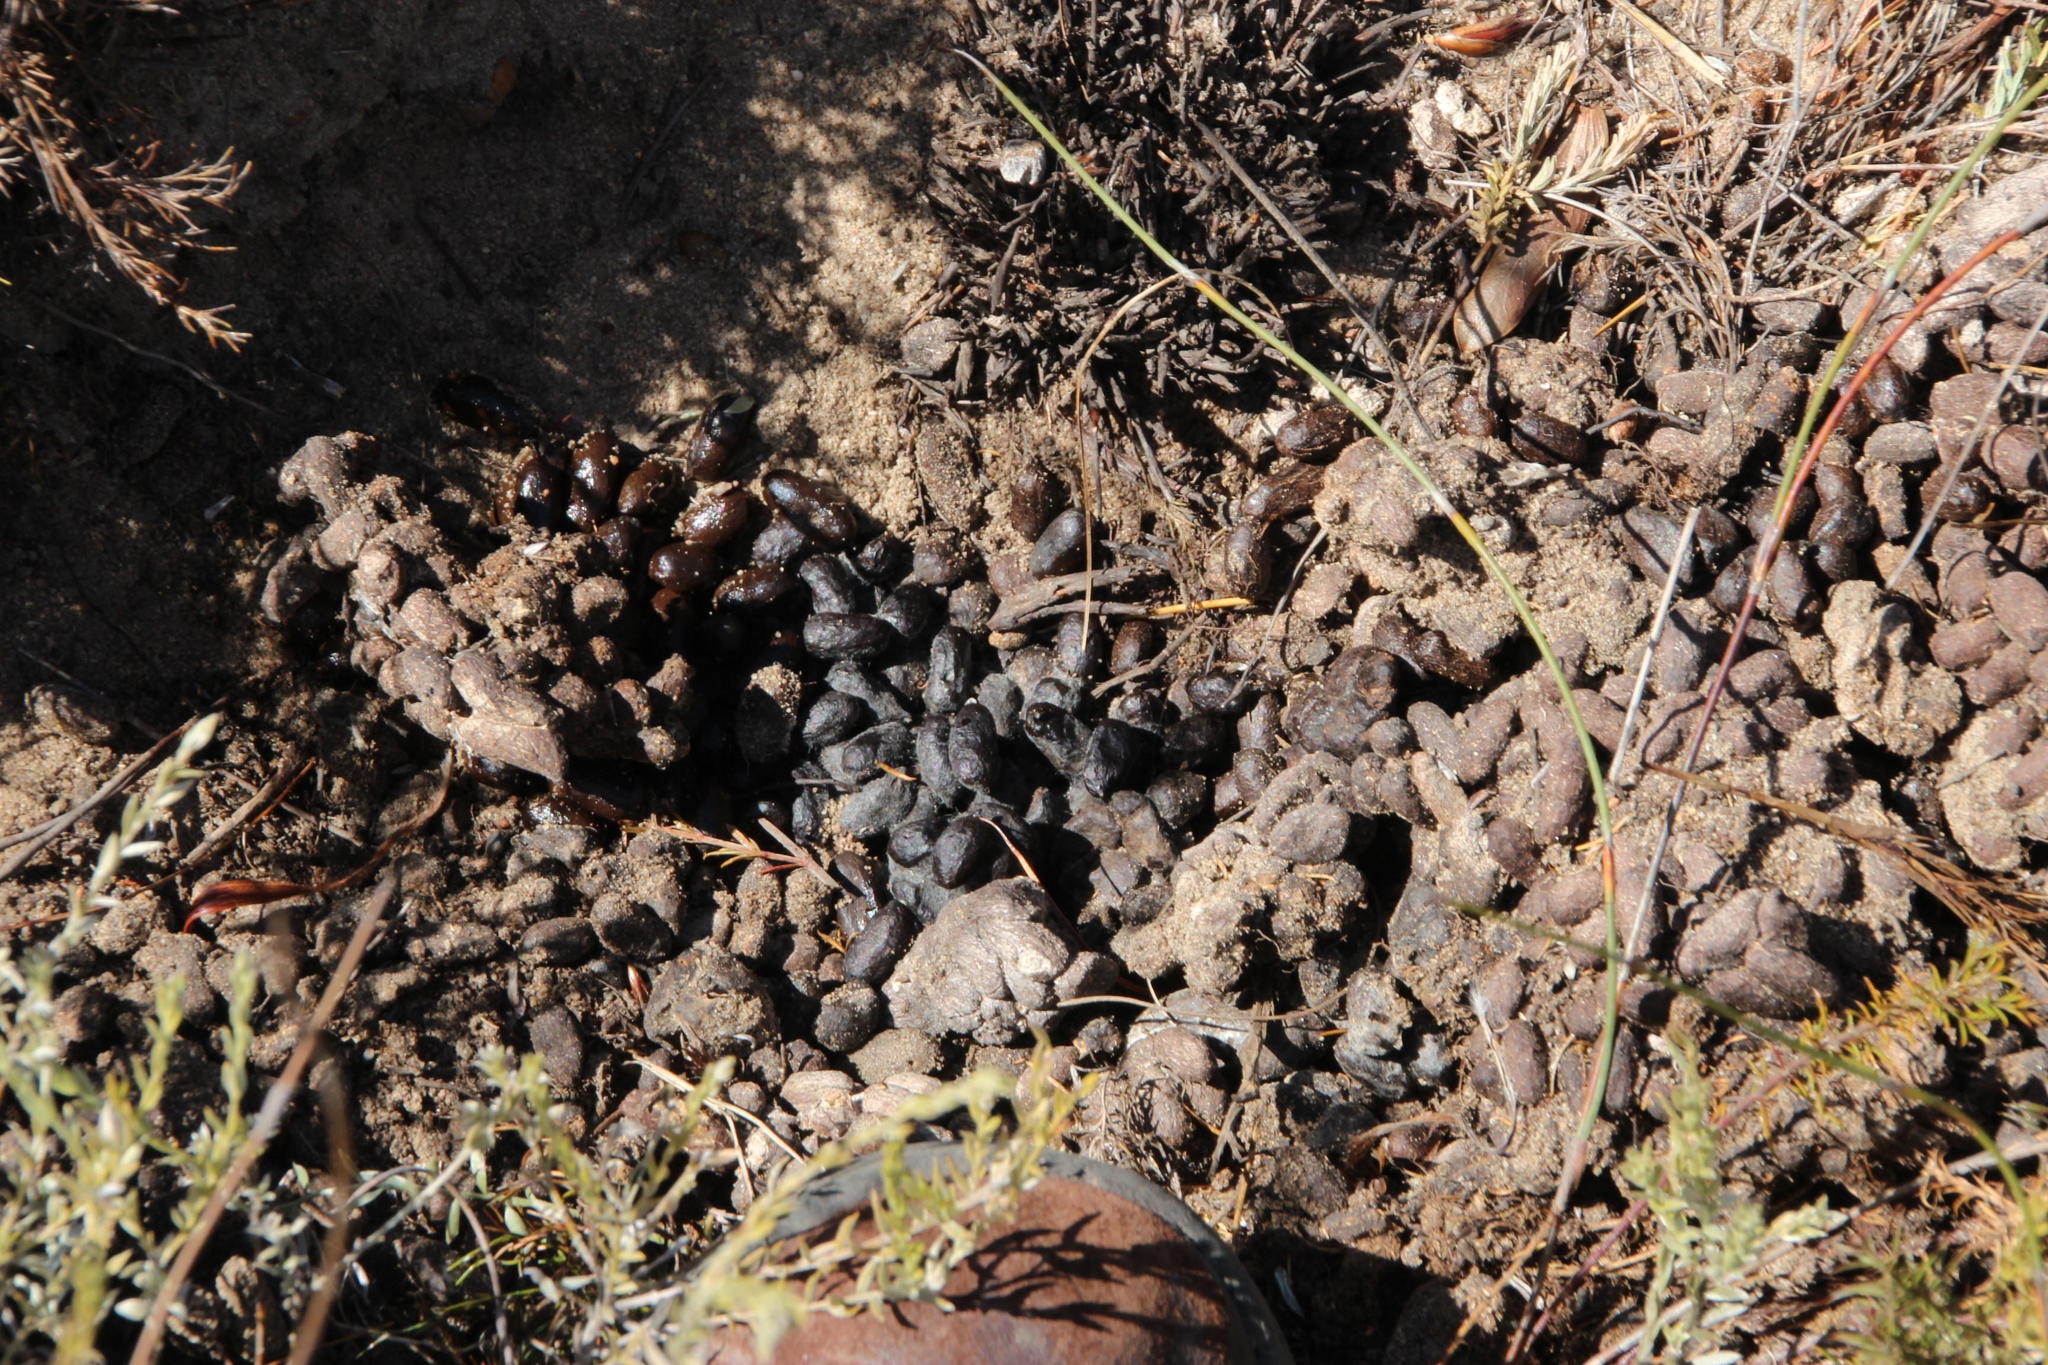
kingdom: Animalia
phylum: Chordata
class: Mammalia
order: Artiodactyla
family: Bovidae
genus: Raphicerus
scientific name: Raphicerus melanotis
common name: Cape grysbok
